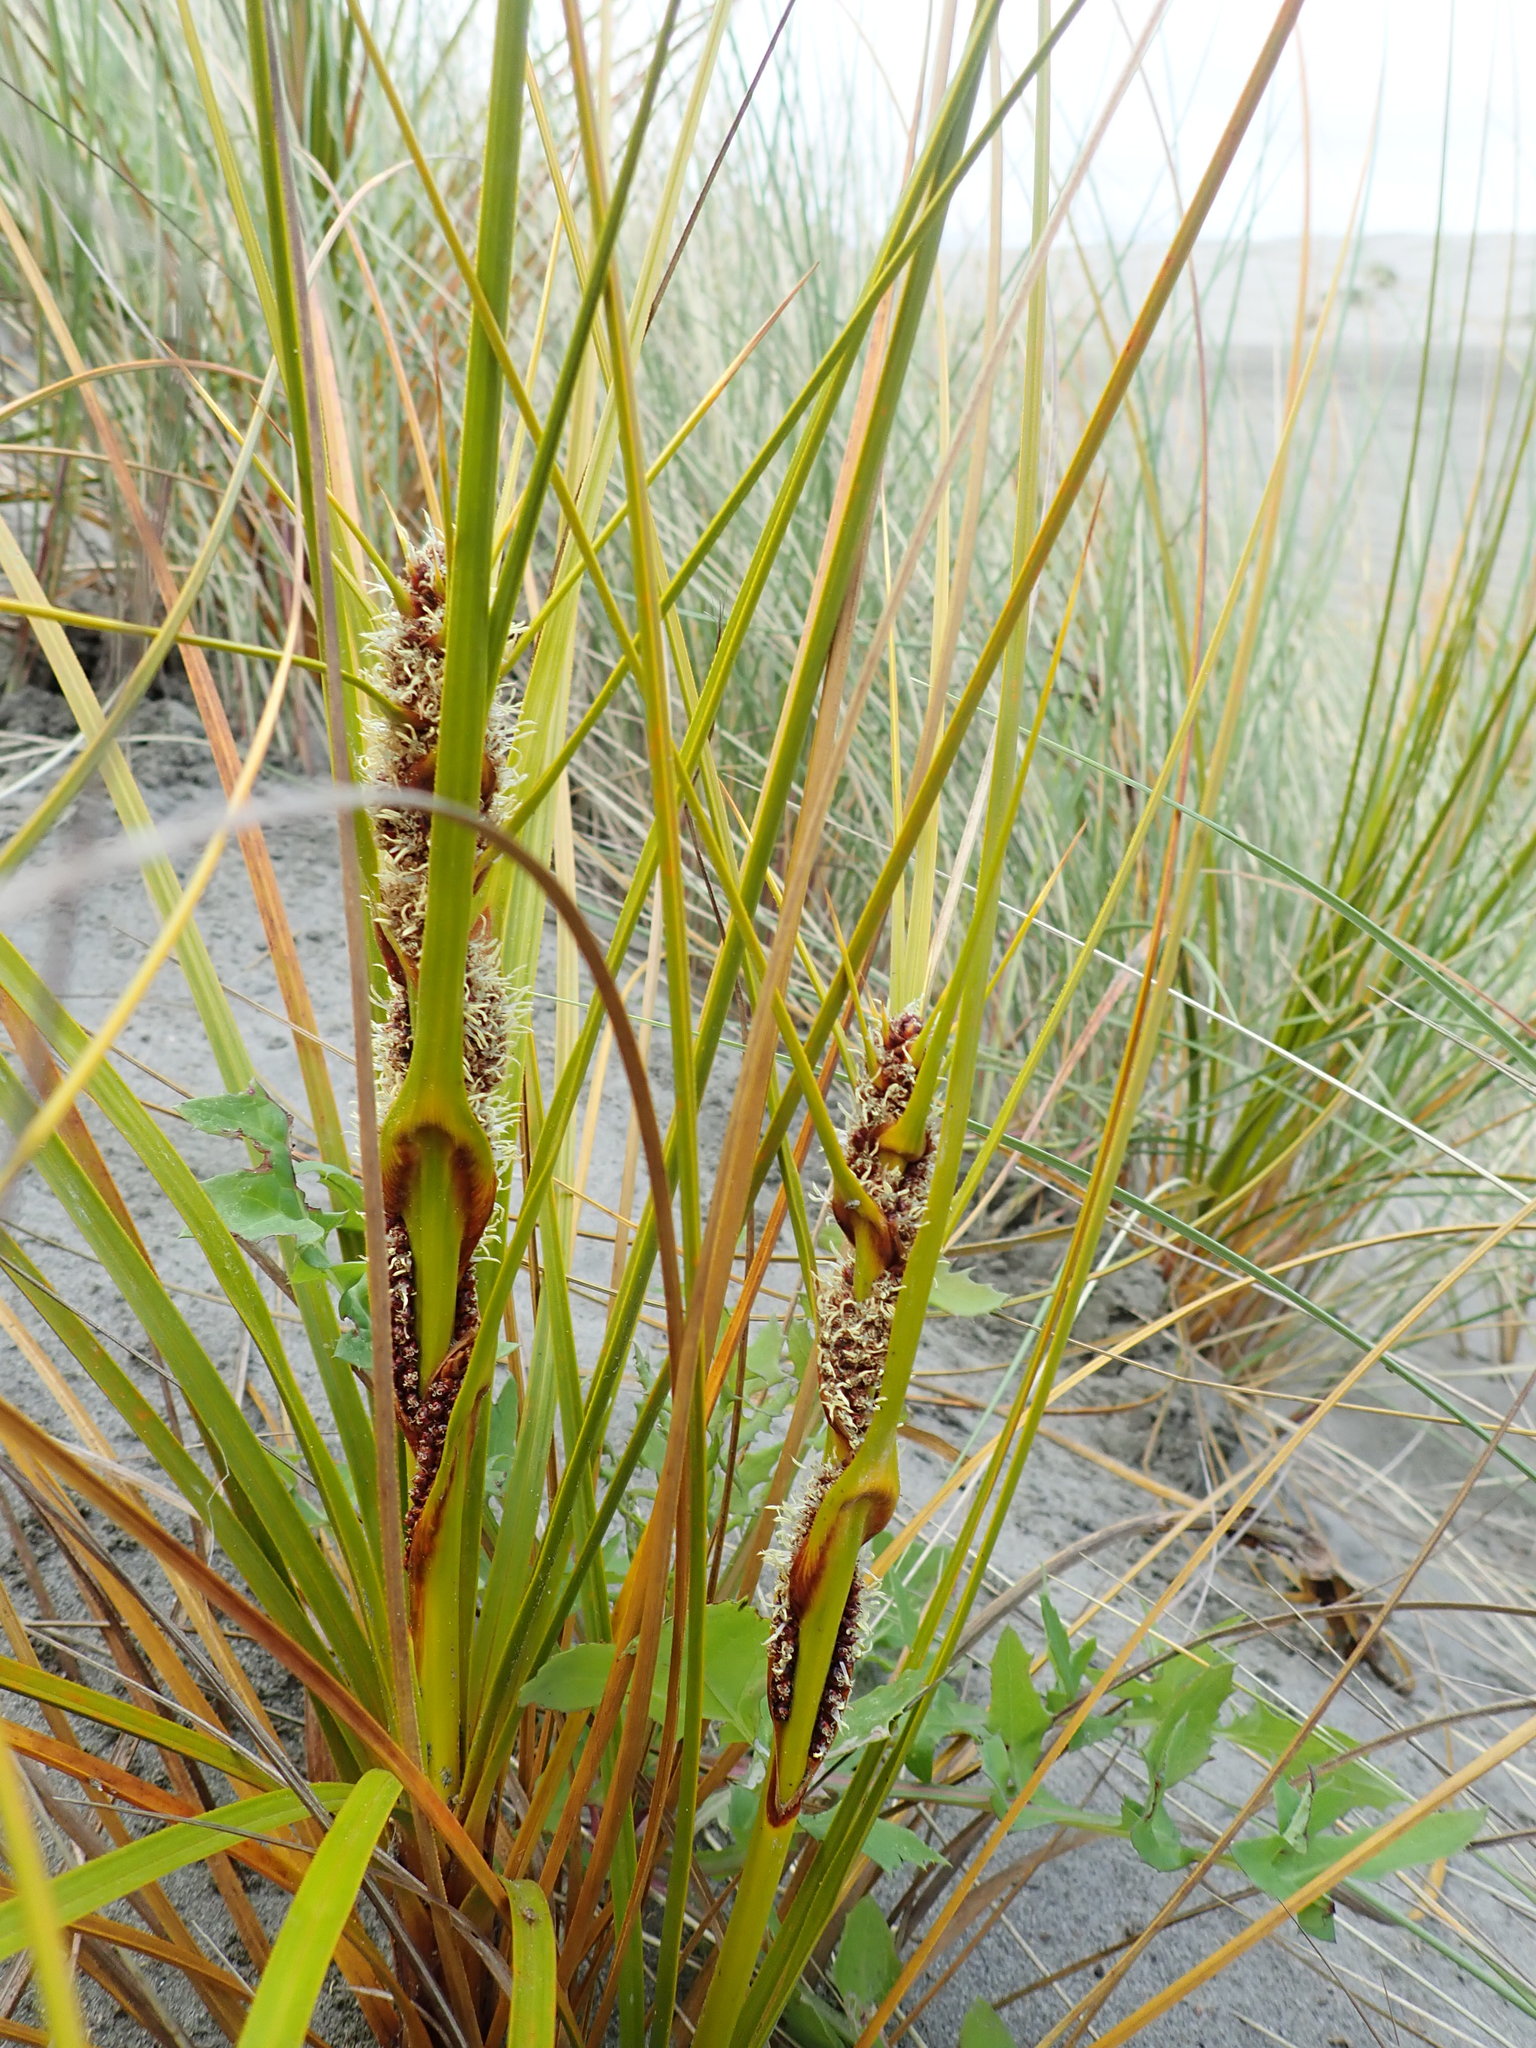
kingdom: Plantae
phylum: Tracheophyta
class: Liliopsida
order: Poales
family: Cyperaceae
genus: Ficinia
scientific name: Ficinia spiralis
